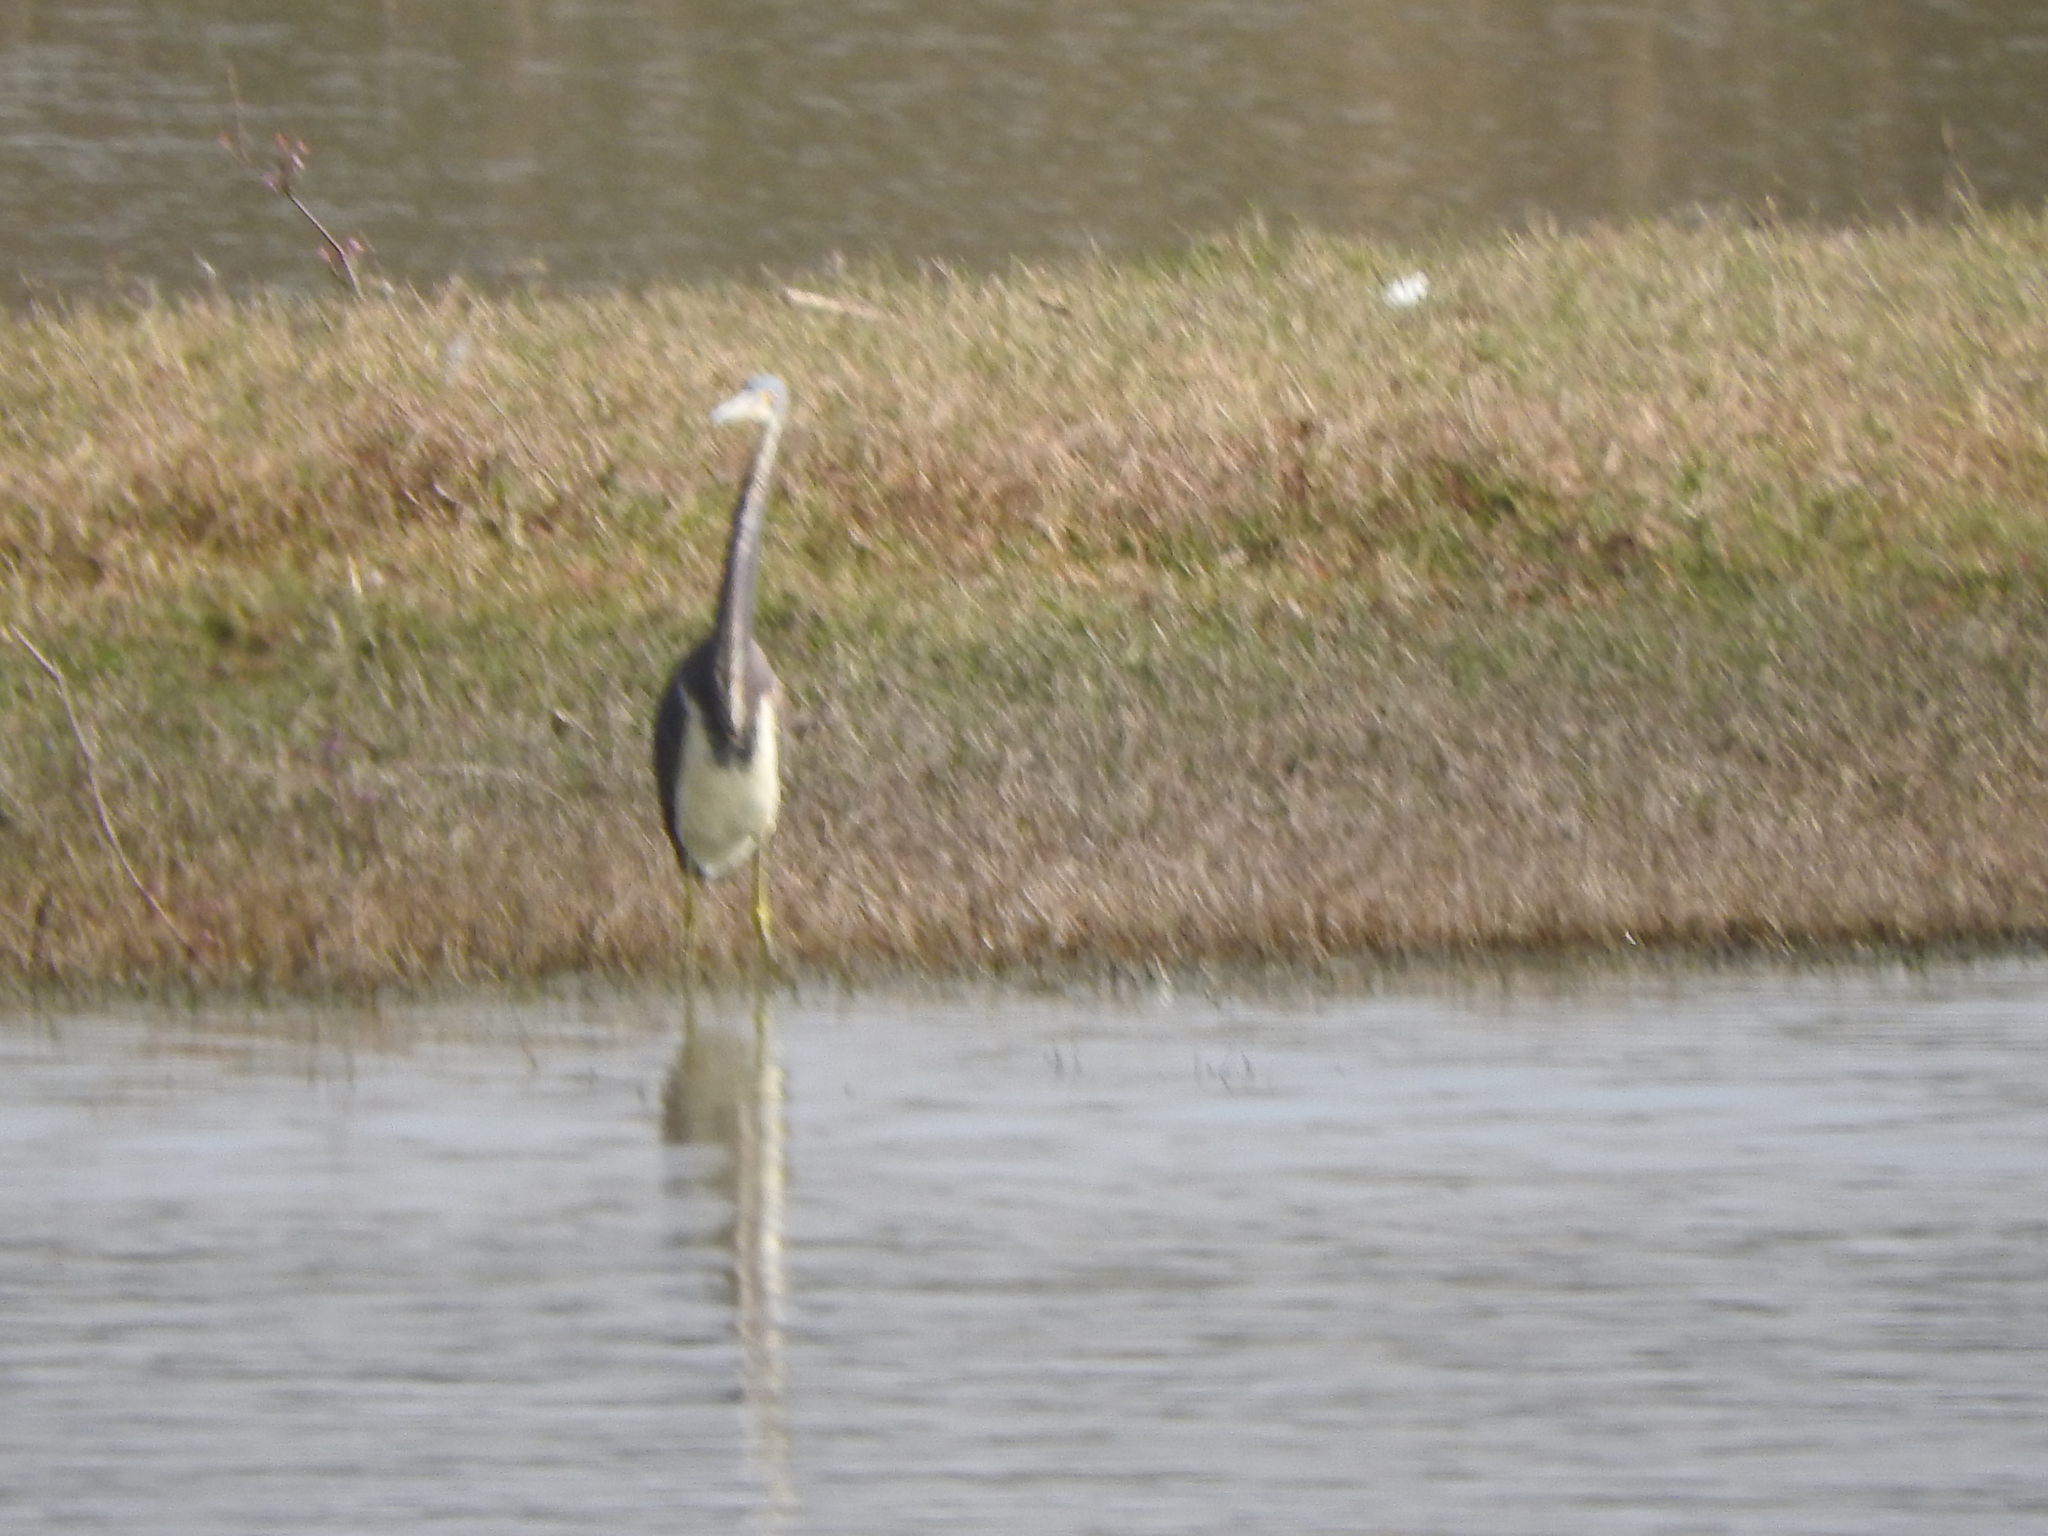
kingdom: Animalia
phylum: Chordata
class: Aves
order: Pelecaniformes
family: Ardeidae
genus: Egretta
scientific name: Egretta tricolor
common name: Tricolored heron
